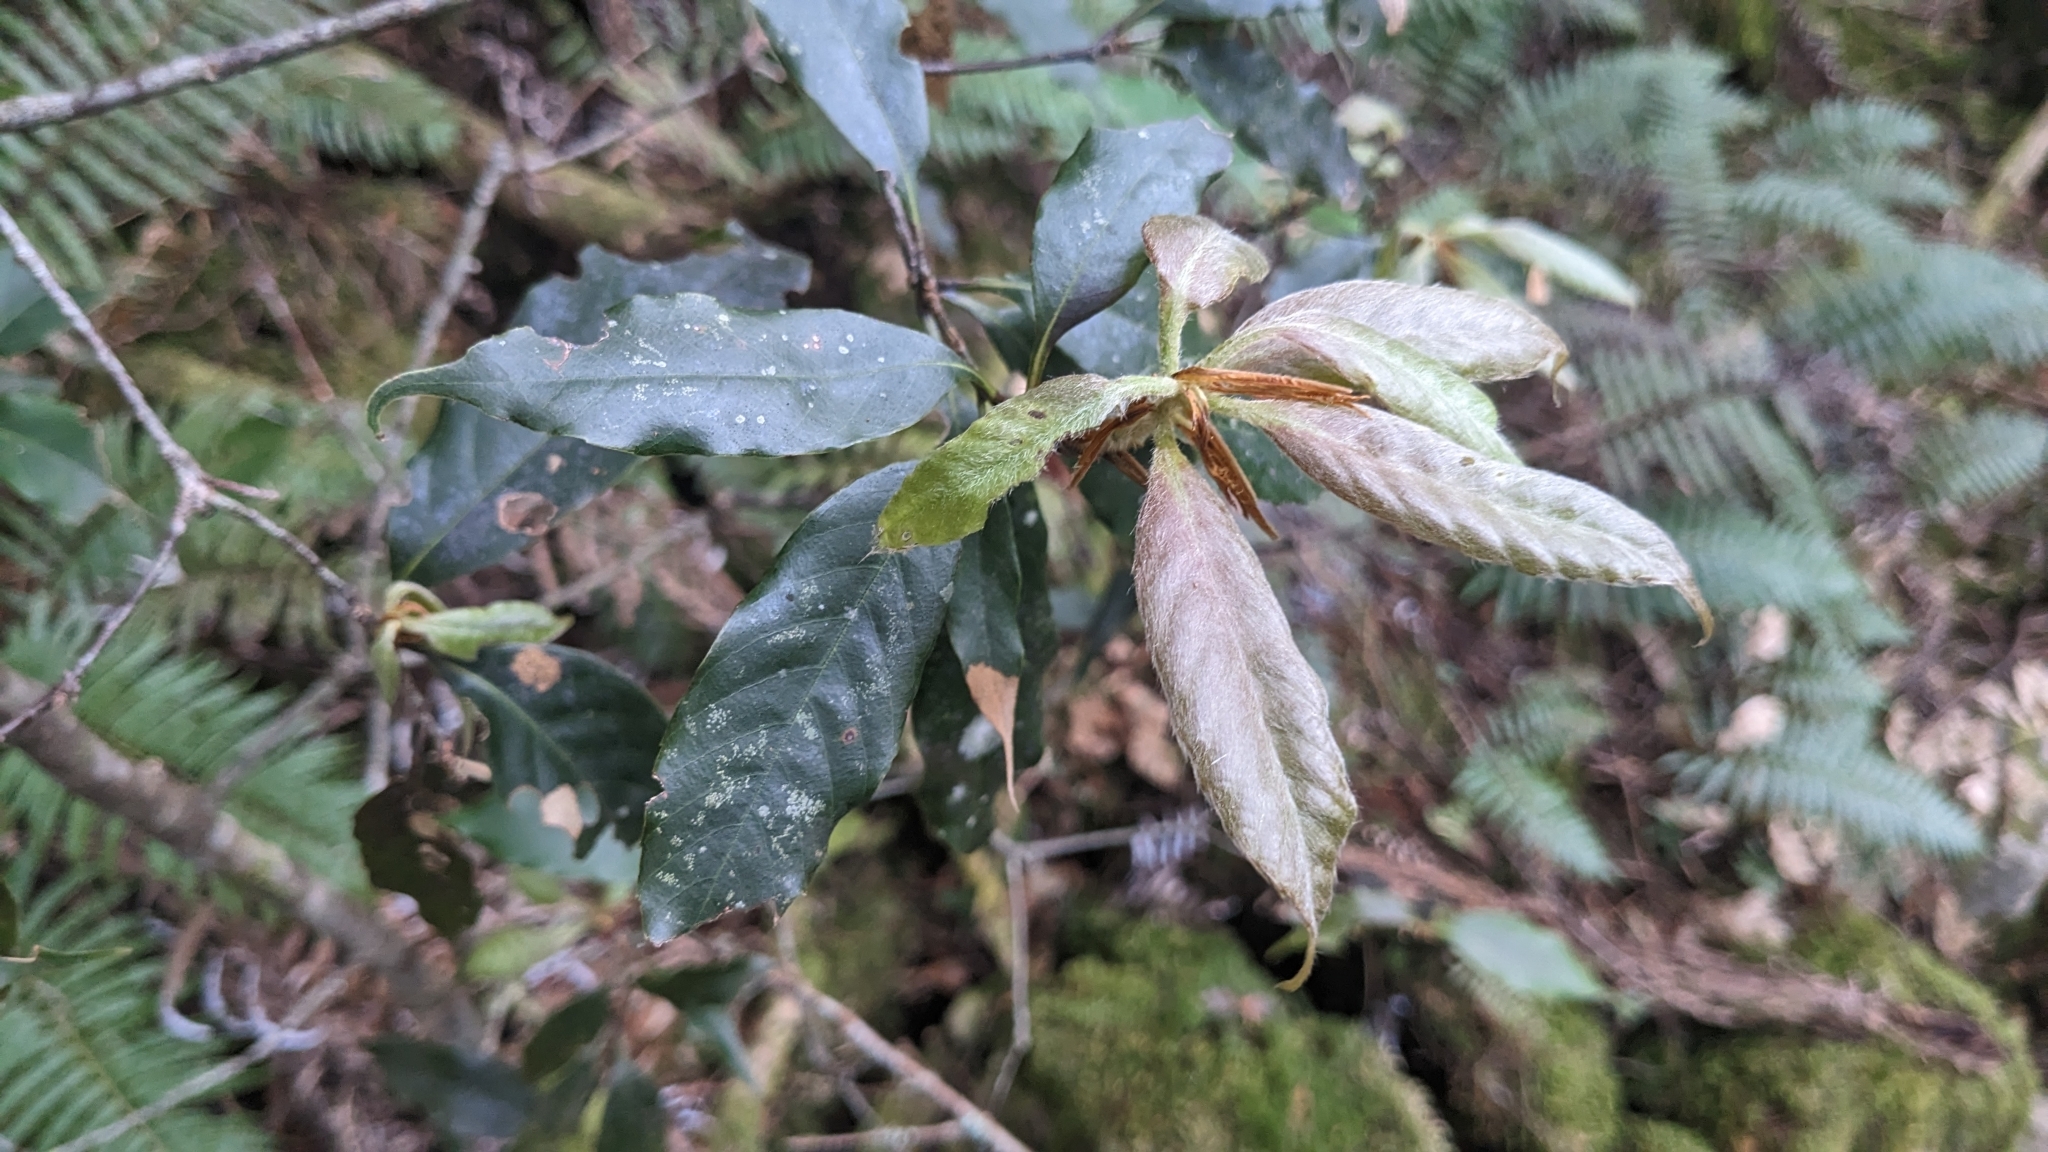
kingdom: Plantae
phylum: Tracheophyta
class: Magnoliopsida
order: Fagales
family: Fagaceae
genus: Quercus
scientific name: Quercus morii
